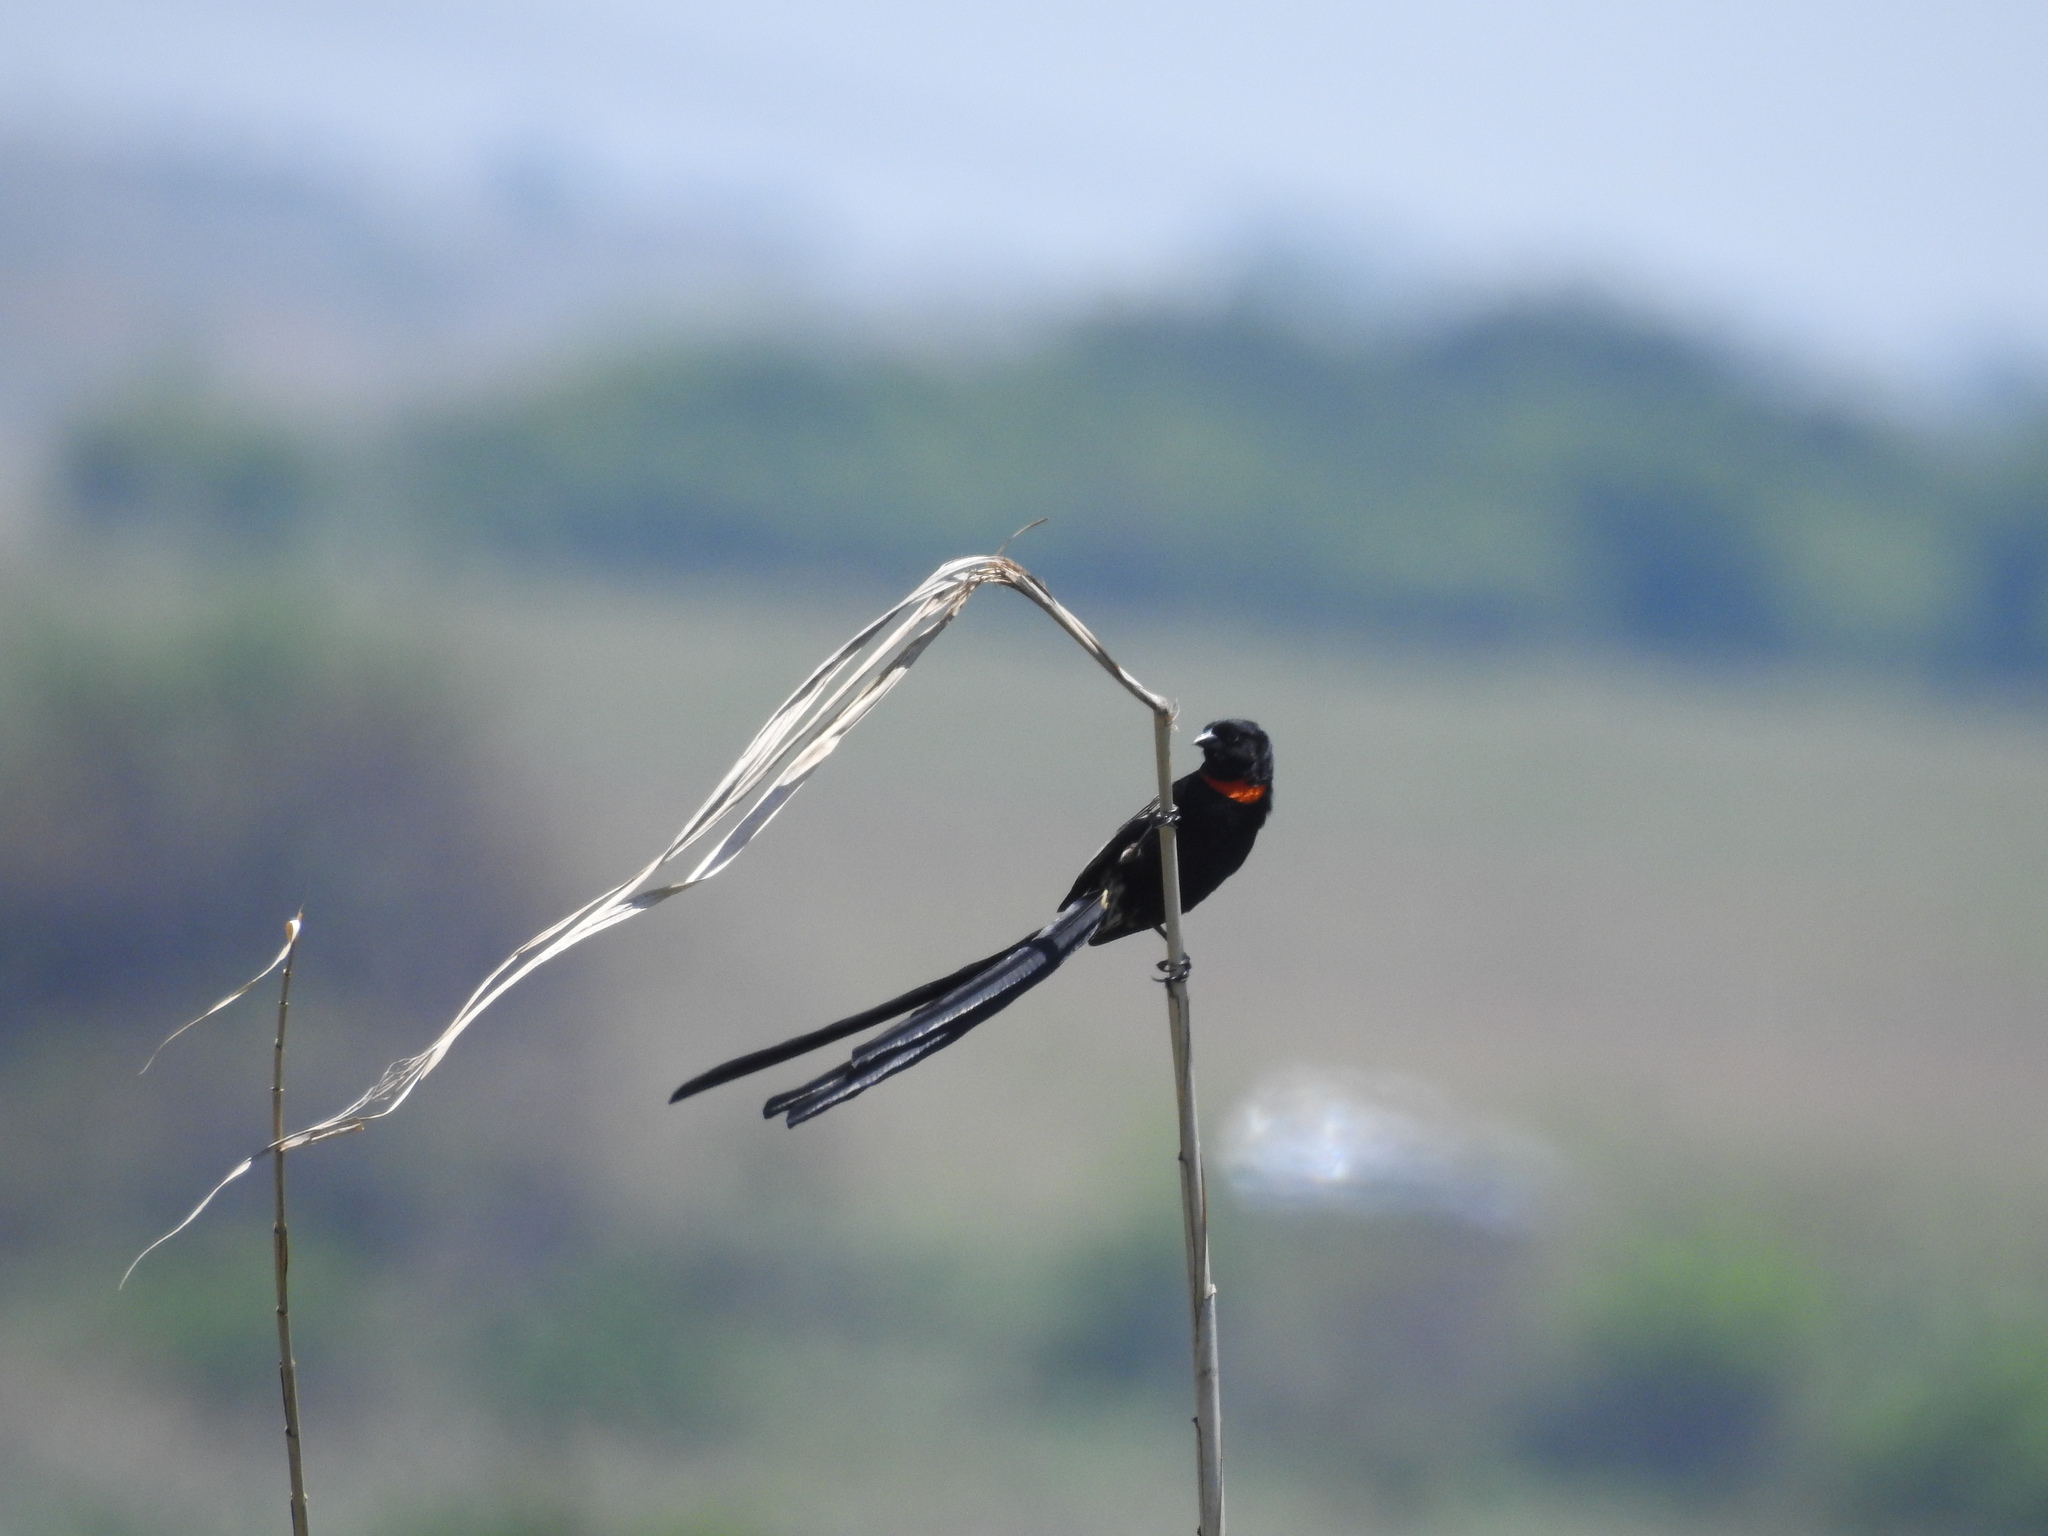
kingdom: Animalia
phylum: Chordata
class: Aves
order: Passeriformes
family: Ploceidae
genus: Euplectes
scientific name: Euplectes ardens
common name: Red-collared widowbird
